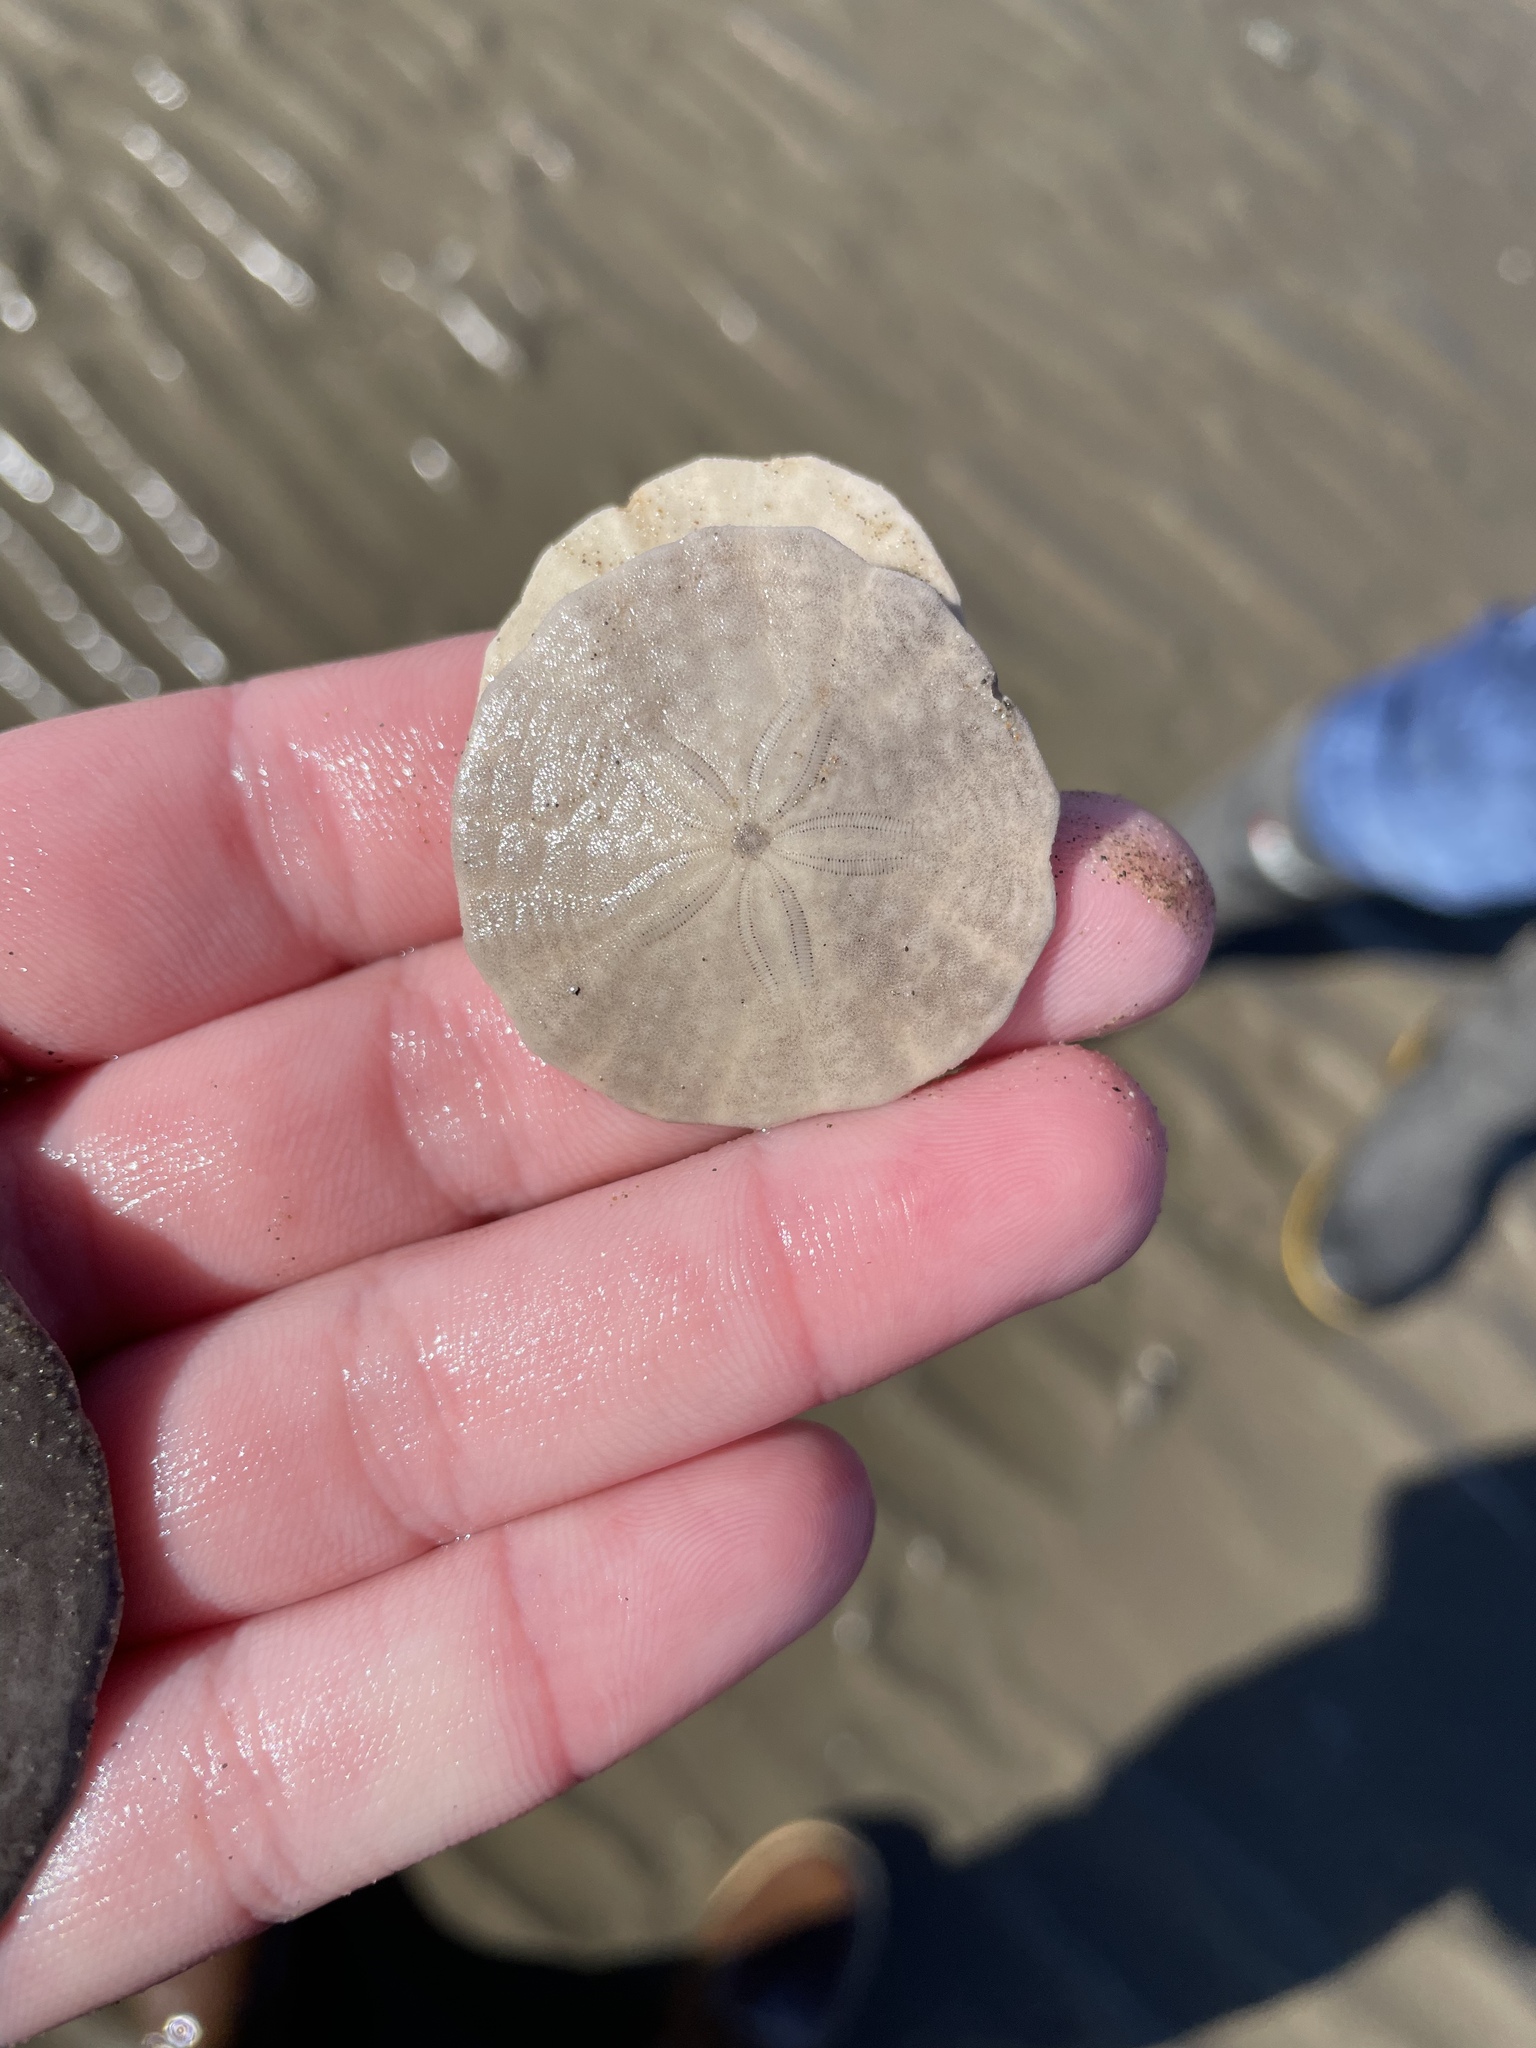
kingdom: Animalia
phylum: Echinodermata
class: Echinoidea
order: Echinolampadacea
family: Echinarachniidae
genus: Echinarachnius
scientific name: Echinarachnius parma
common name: Common sand dollar
